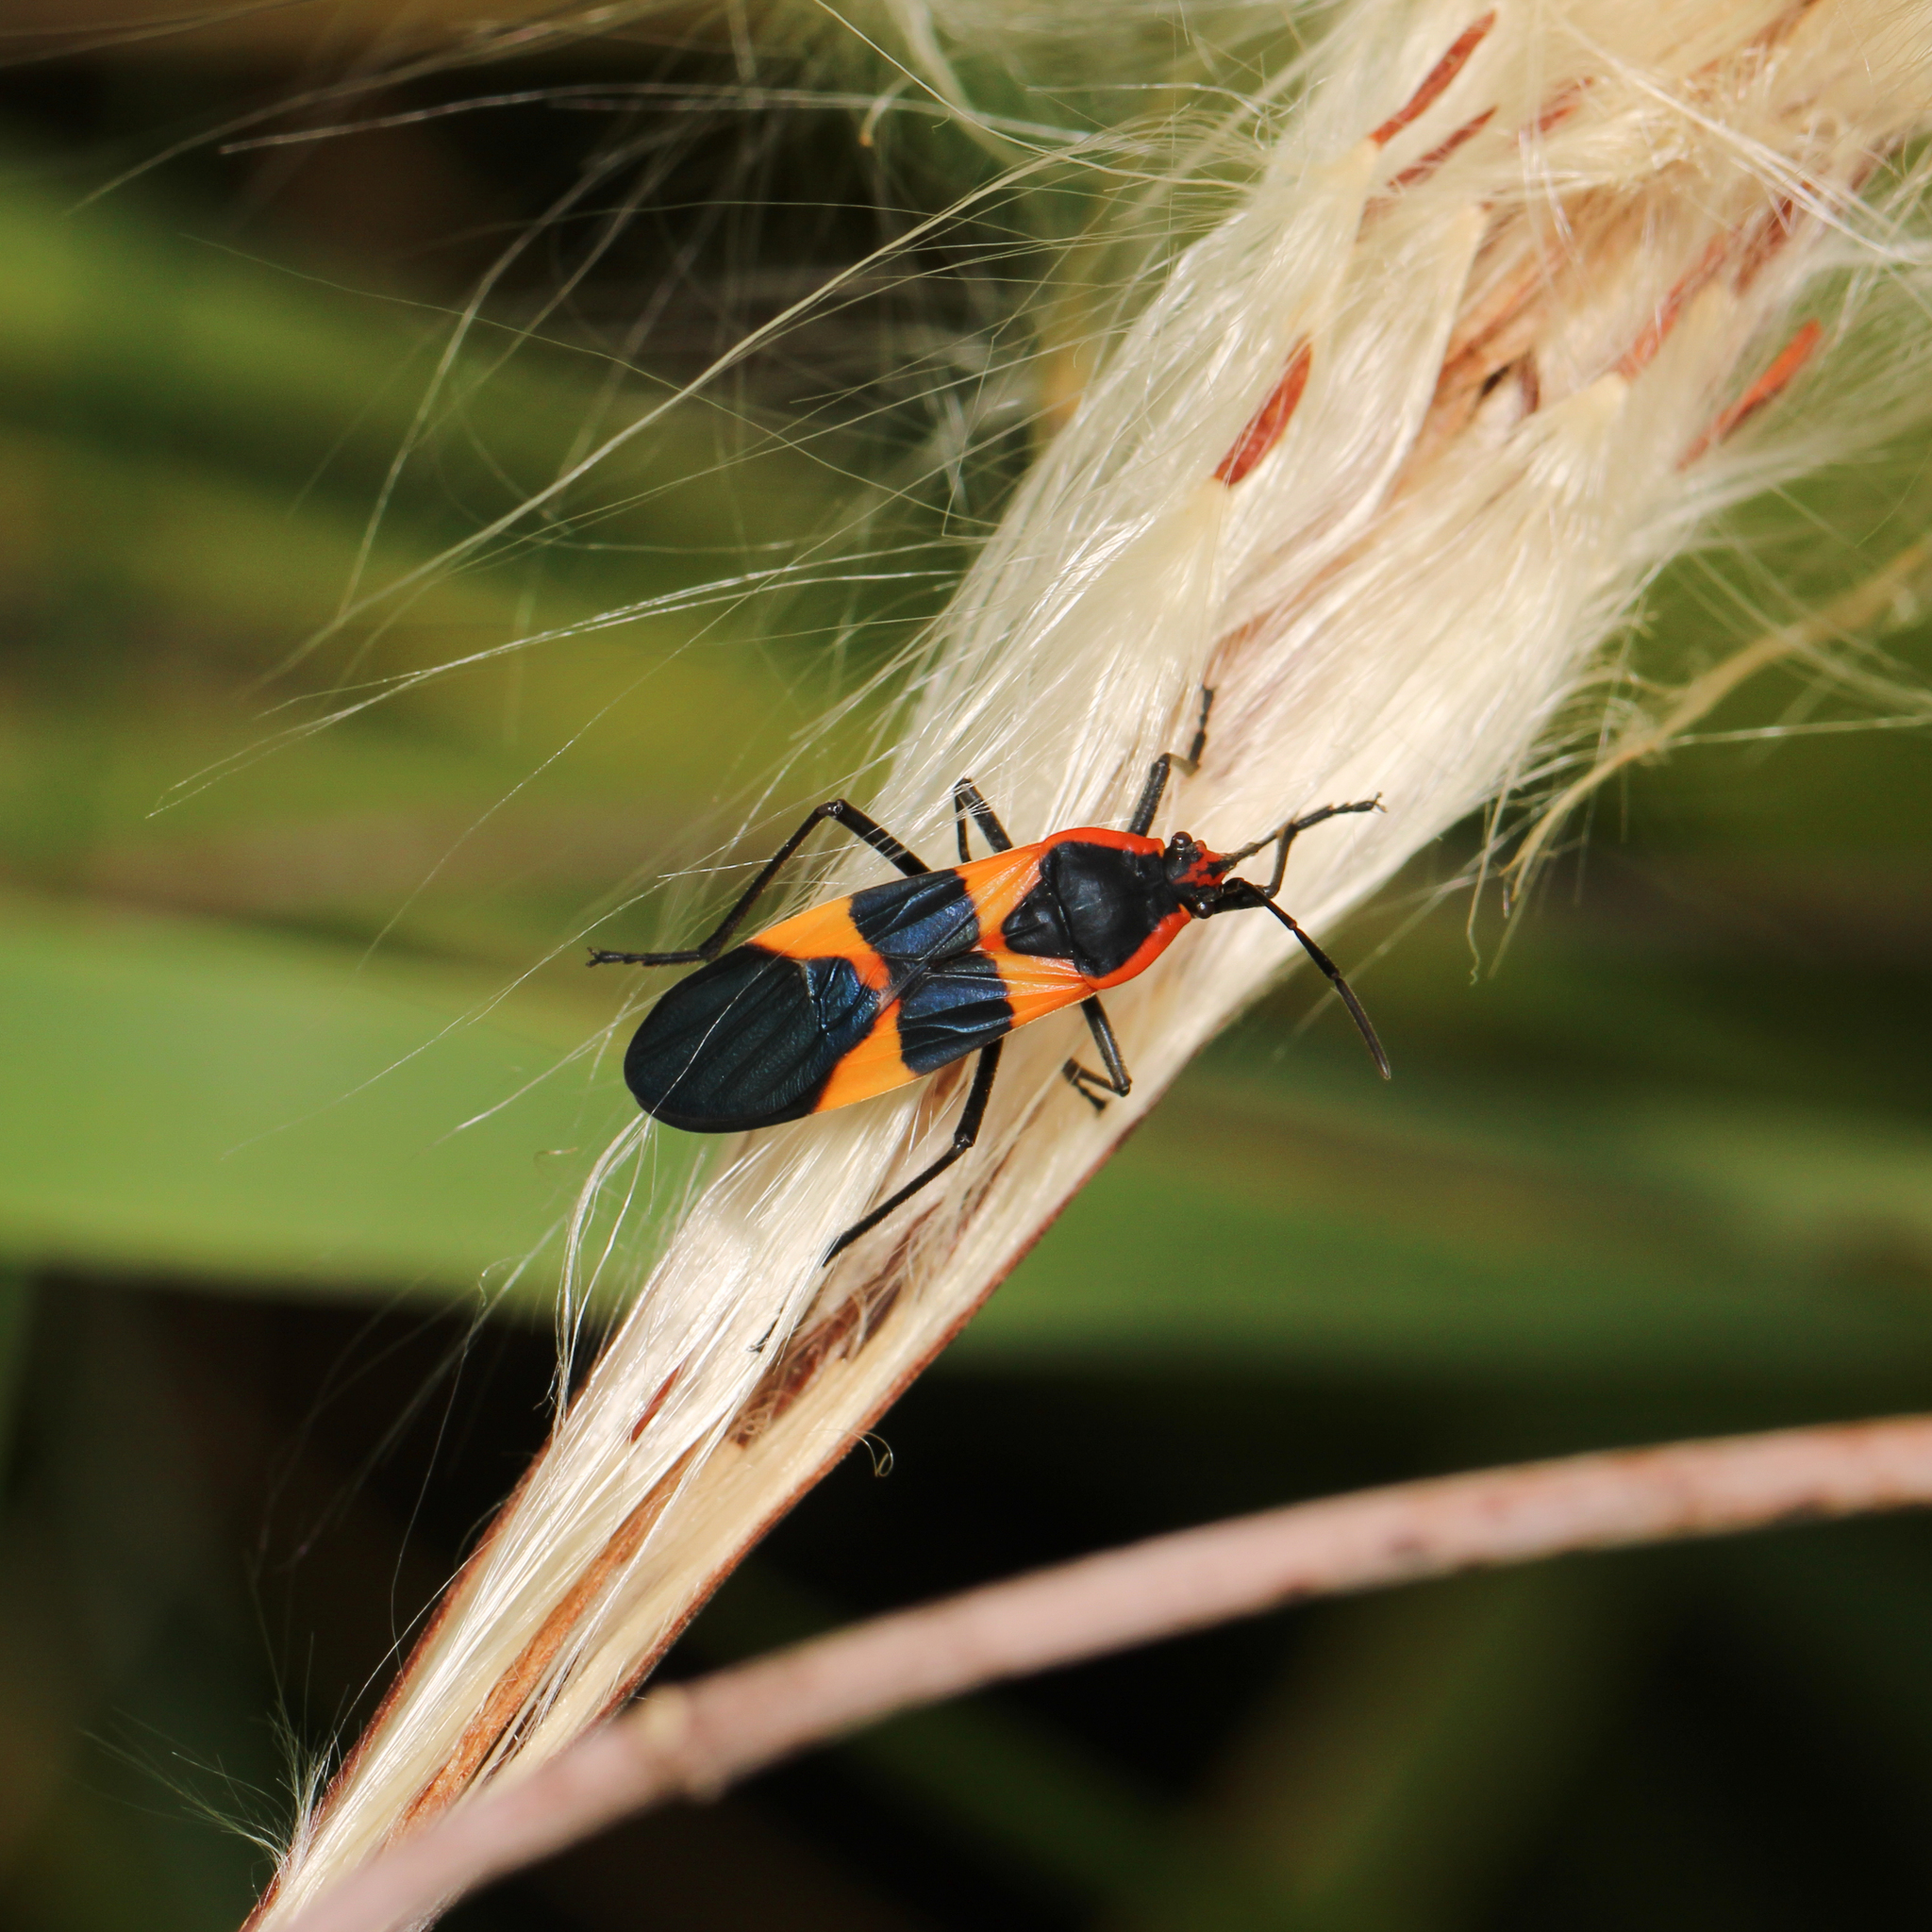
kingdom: Animalia
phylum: Arthropoda
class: Insecta
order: Hemiptera
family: Lygaeidae
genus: Oncopeltus
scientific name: Oncopeltus fasciatus
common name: Large milkweed bug
